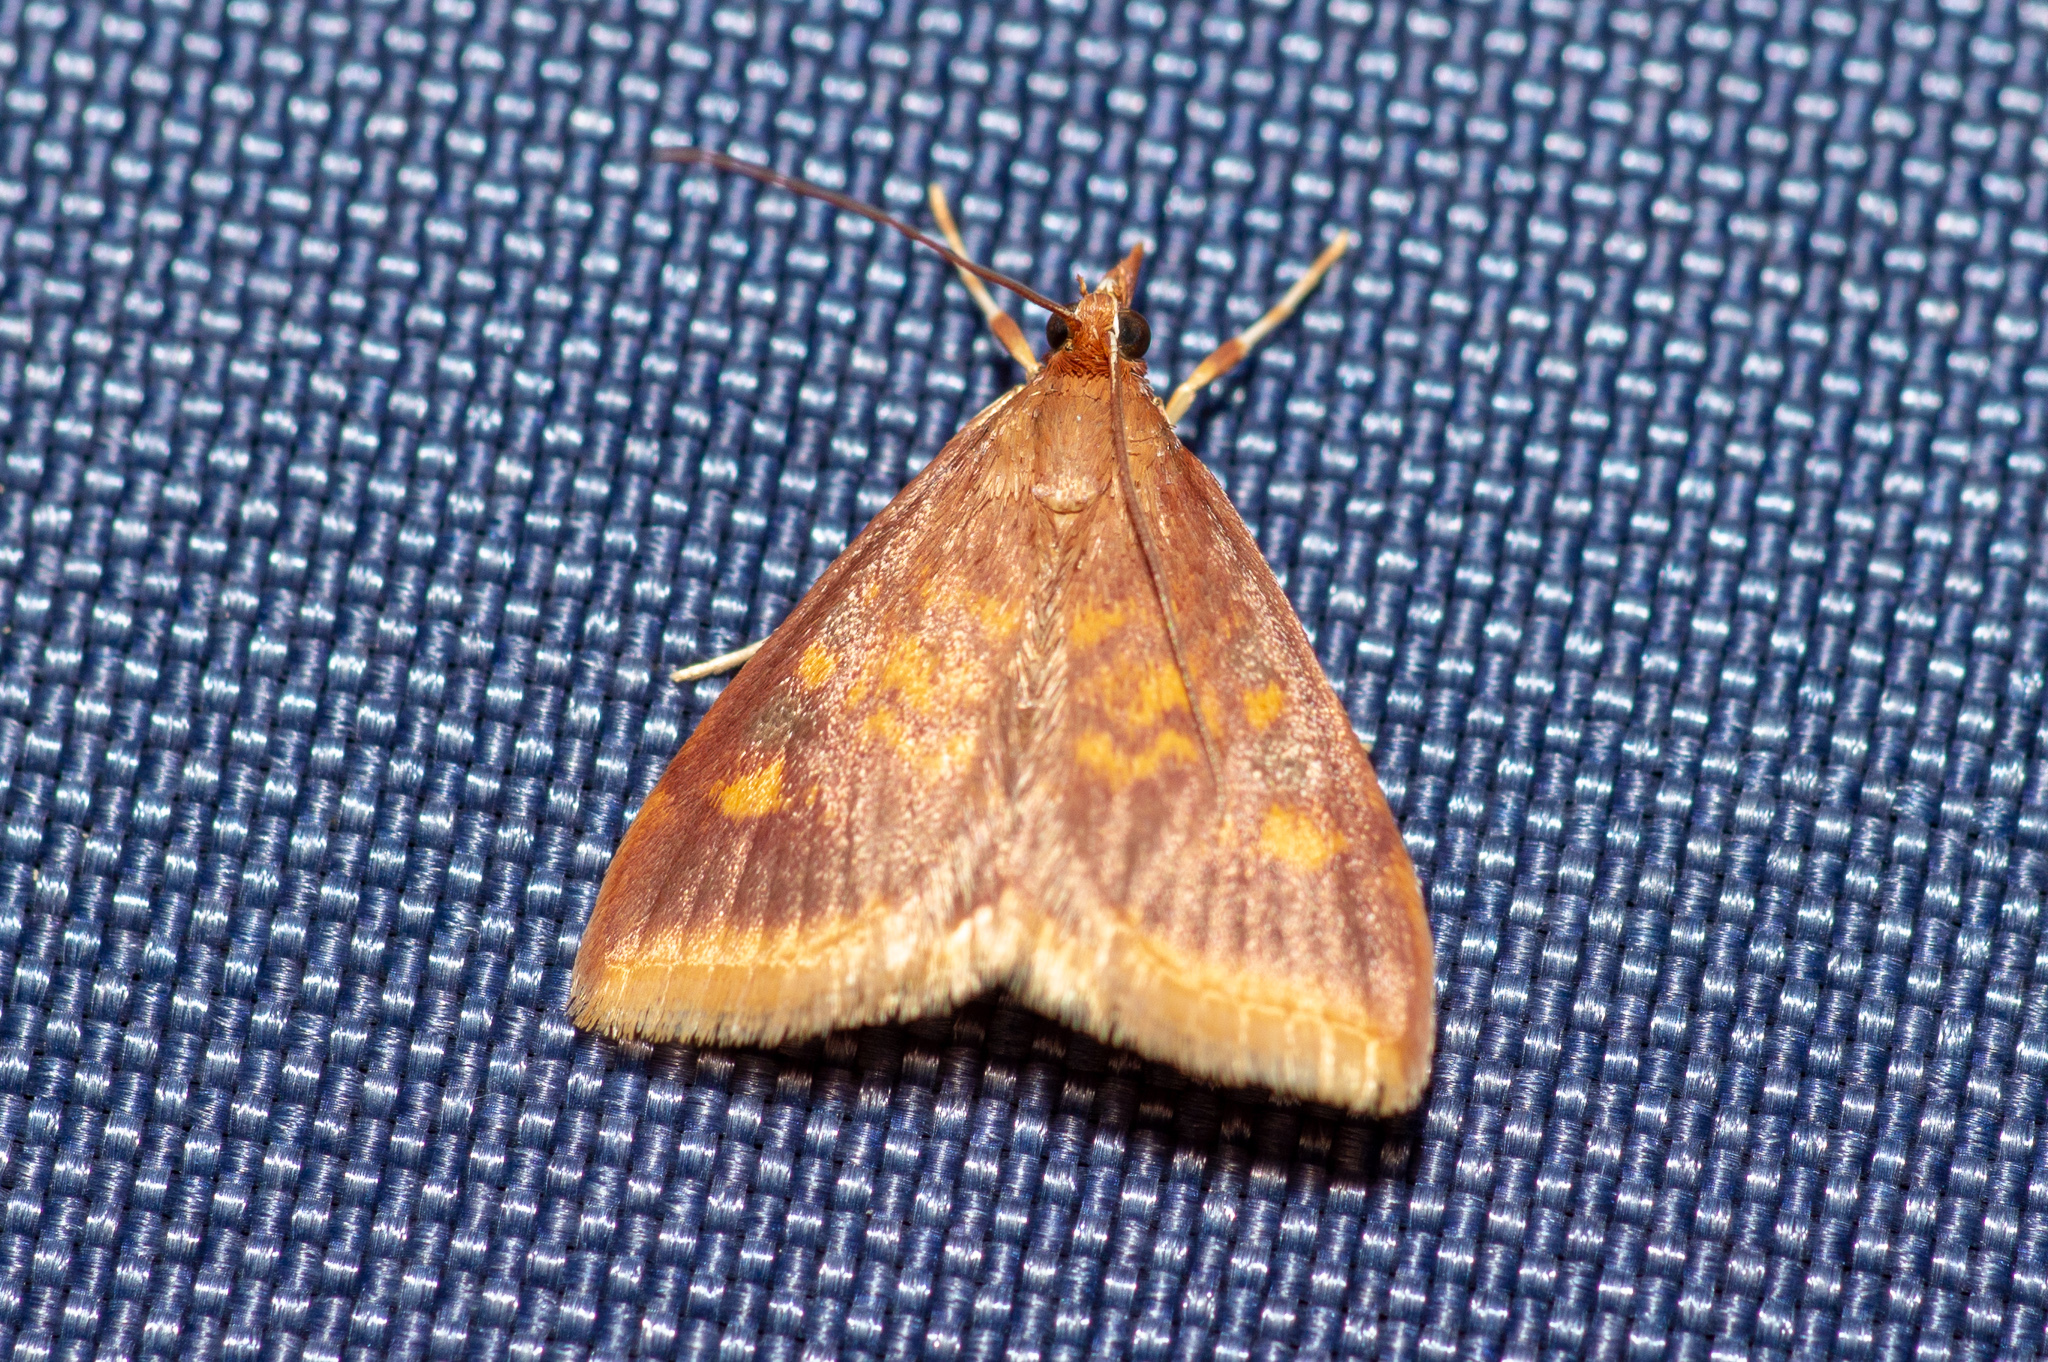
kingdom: Animalia
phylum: Arthropoda
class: Insecta
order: Lepidoptera
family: Crambidae
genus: Pyrausta
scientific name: Pyrausta acrionalis
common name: Mint-loving pyrausta moth
